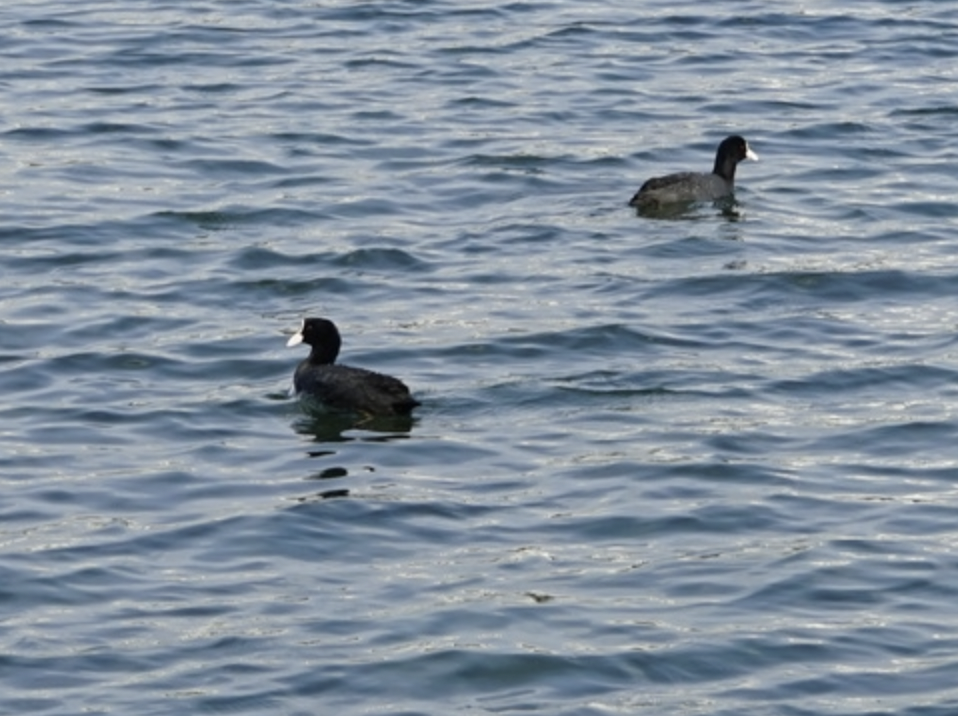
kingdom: Animalia
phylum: Chordata
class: Aves
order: Gruiformes
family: Rallidae
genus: Fulica
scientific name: Fulica atra
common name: Eurasian coot
